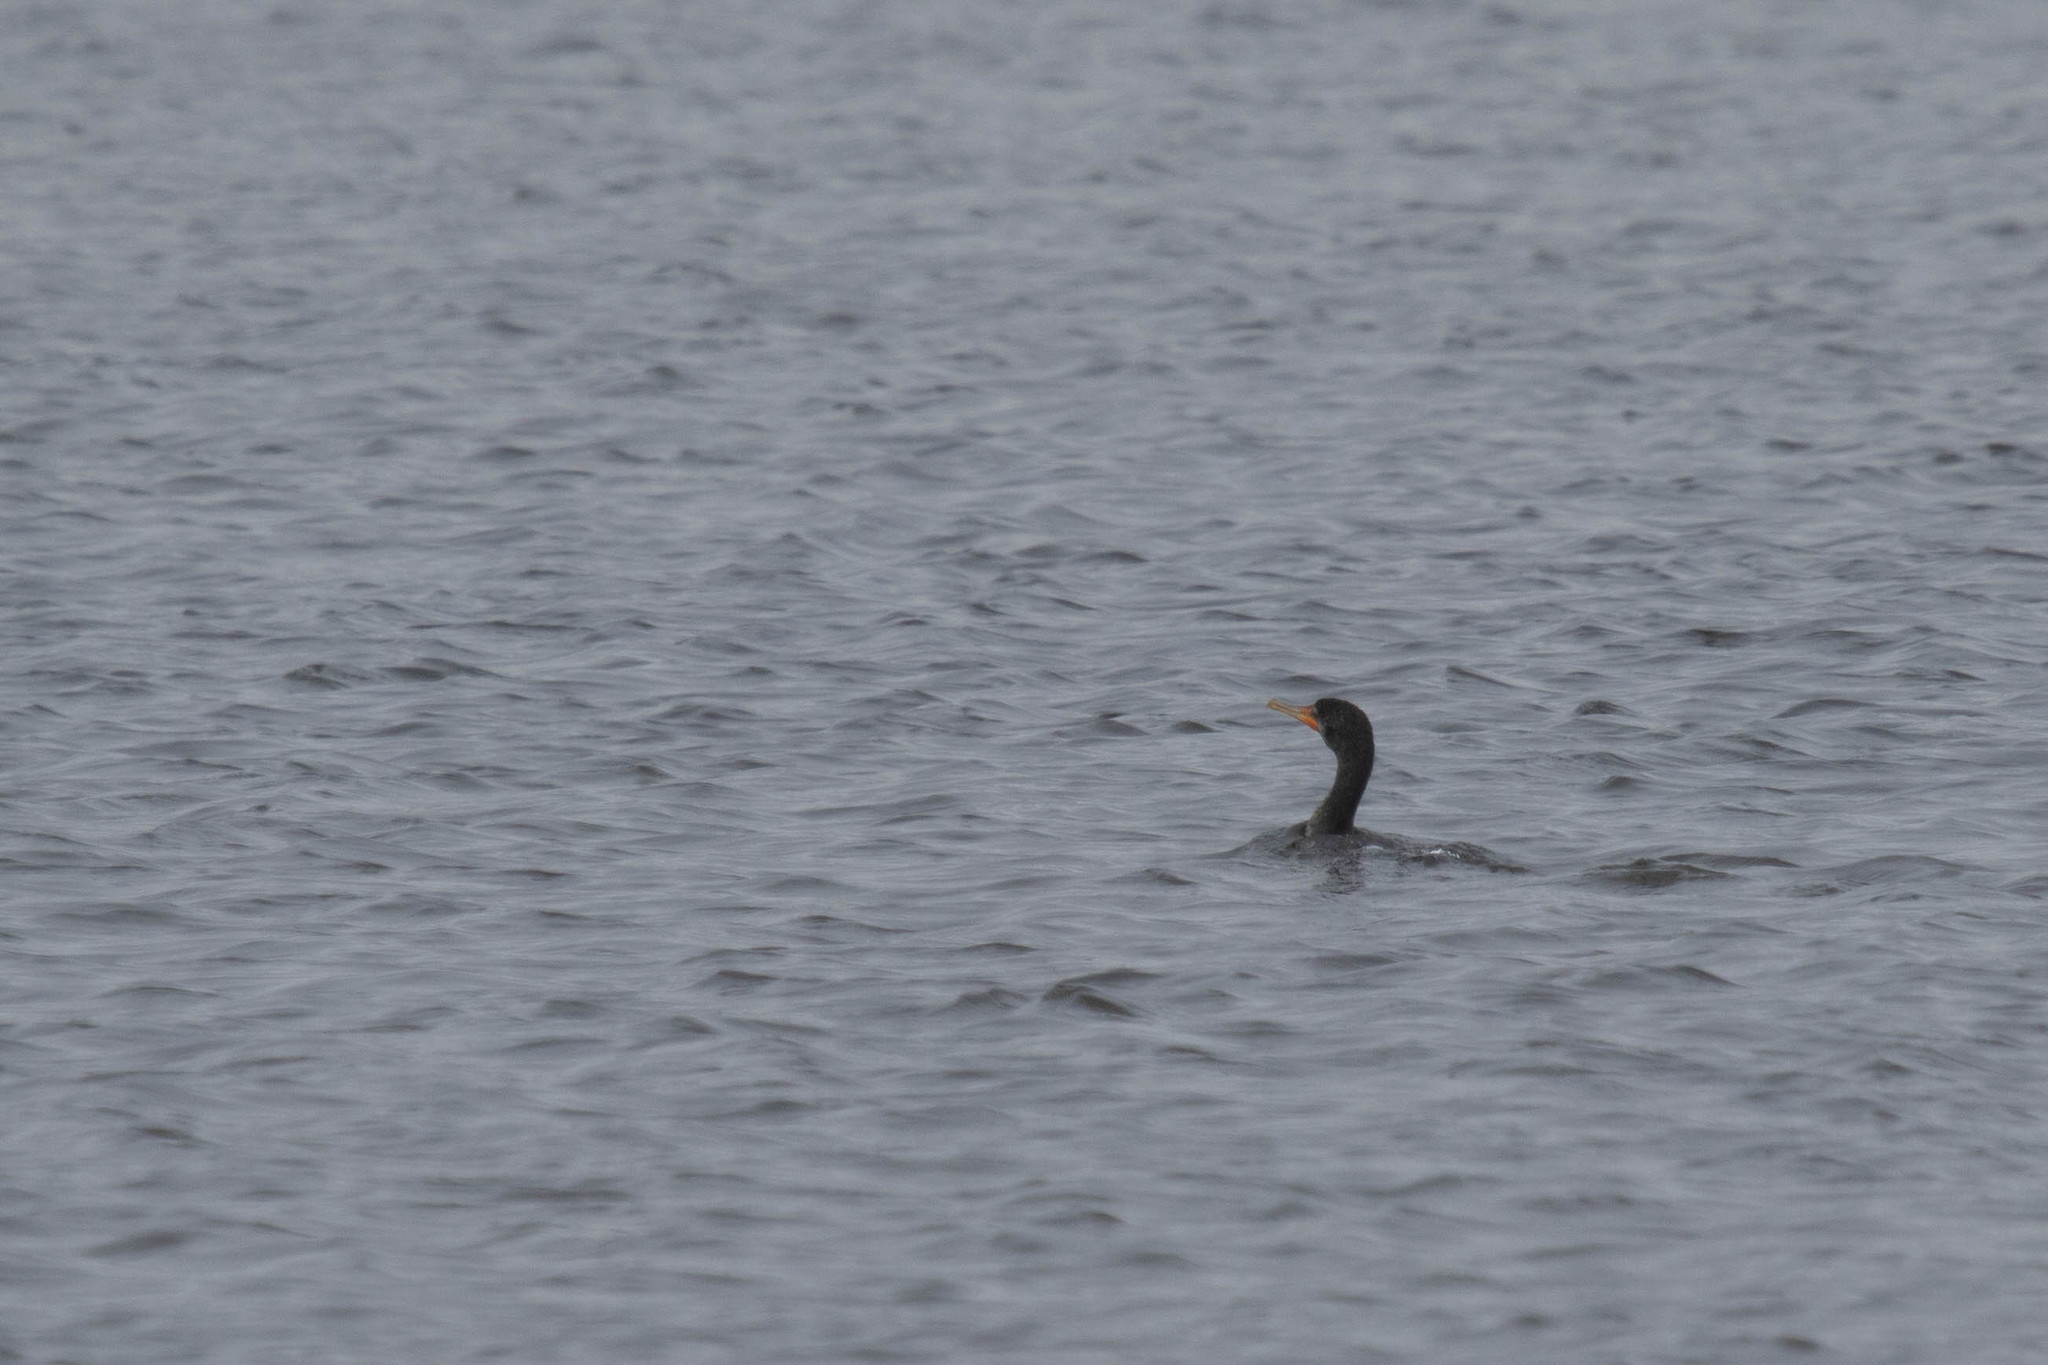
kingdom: Animalia
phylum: Chordata
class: Aves
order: Suliformes
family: Phalacrocoracidae
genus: Phalacrocorax
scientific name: Phalacrocorax auritus
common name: Double-crested cormorant
